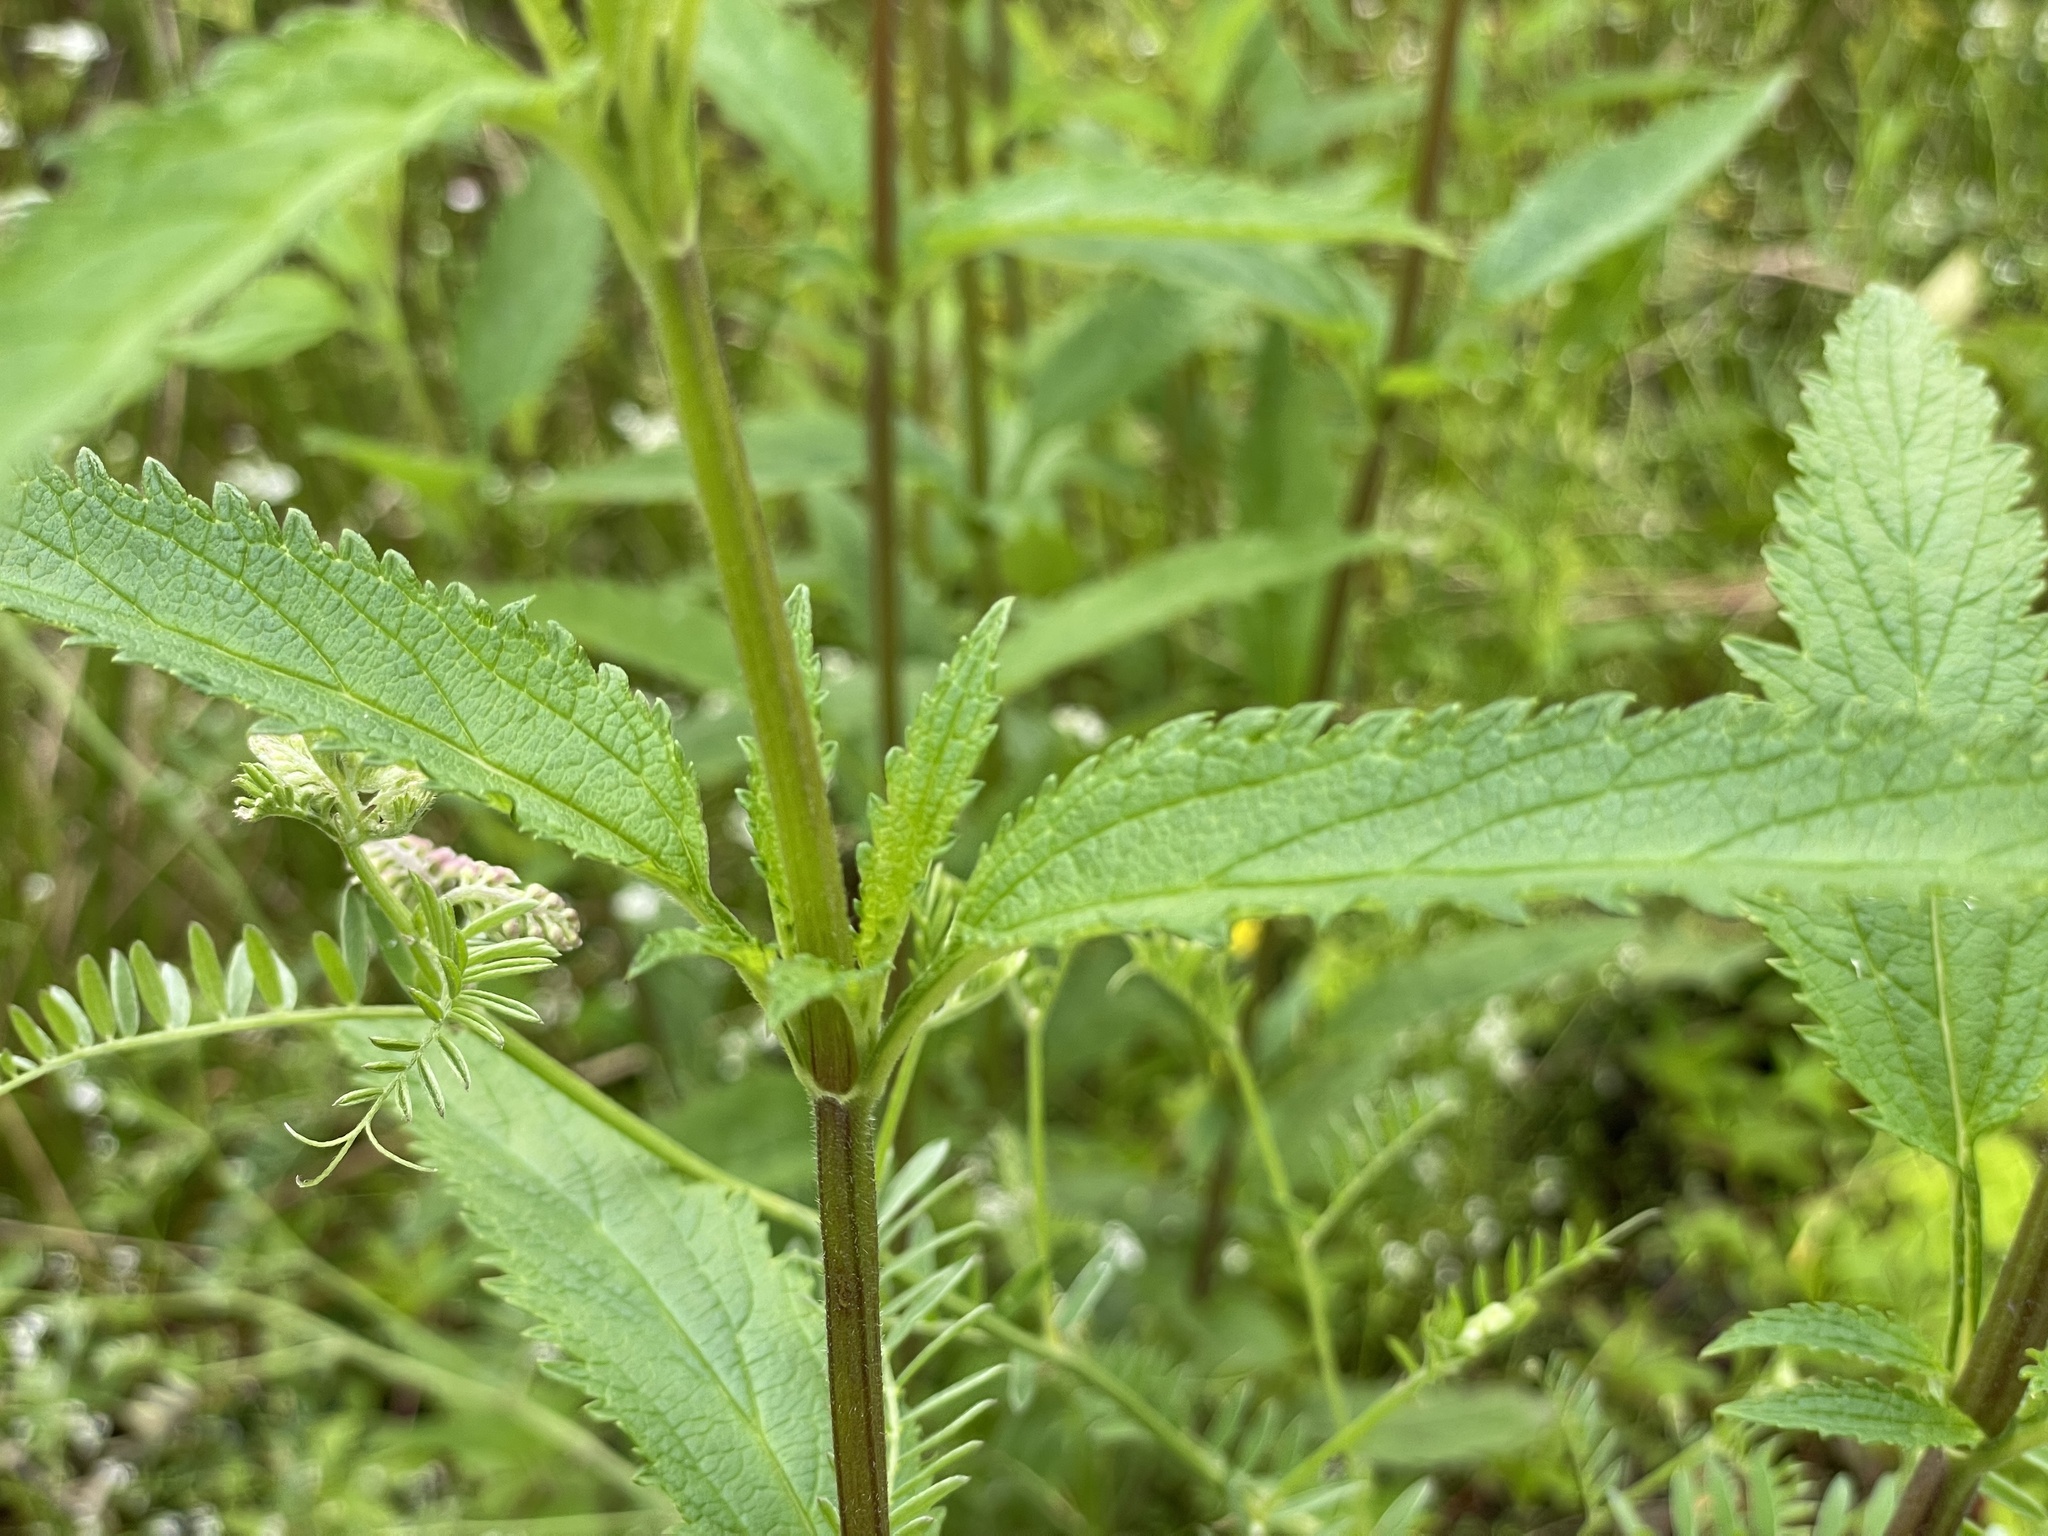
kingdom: Plantae
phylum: Tracheophyta
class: Magnoliopsida
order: Lamiales
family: Verbenaceae
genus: Verbena
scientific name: Verbena hastata
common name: American blue vervain
